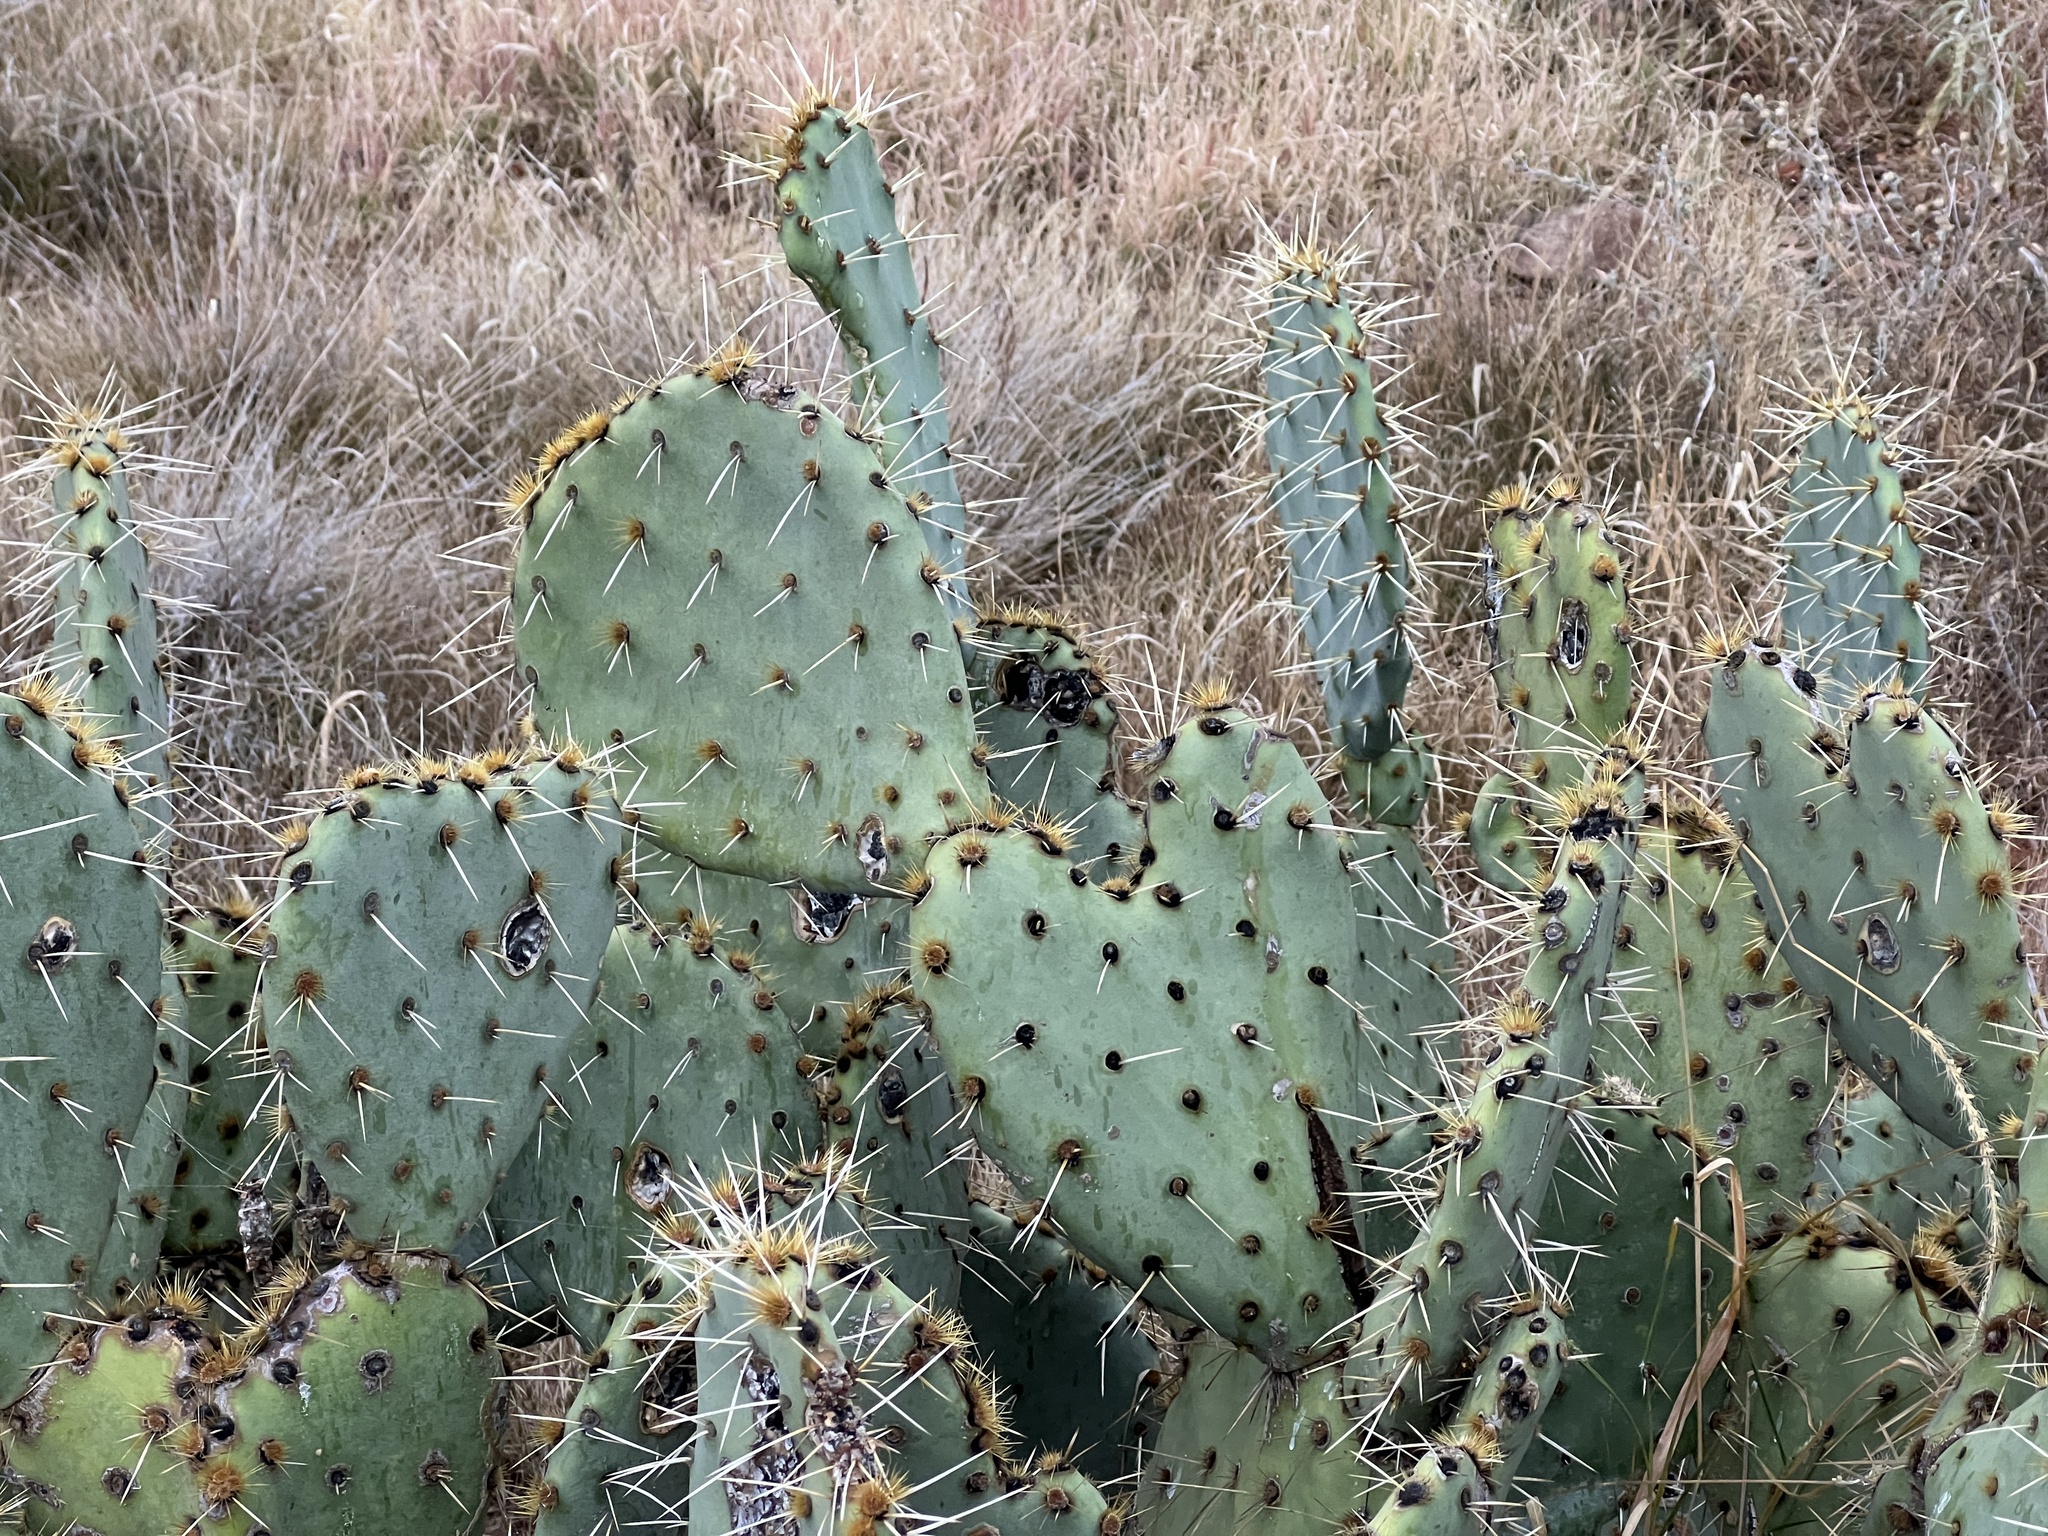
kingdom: Plantae
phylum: Tracheophyta
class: Magnoliopsida
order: Caryophyllales
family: Cactaceae
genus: Opuntia
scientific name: Opuntia engelmannii
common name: Cactus-apple
